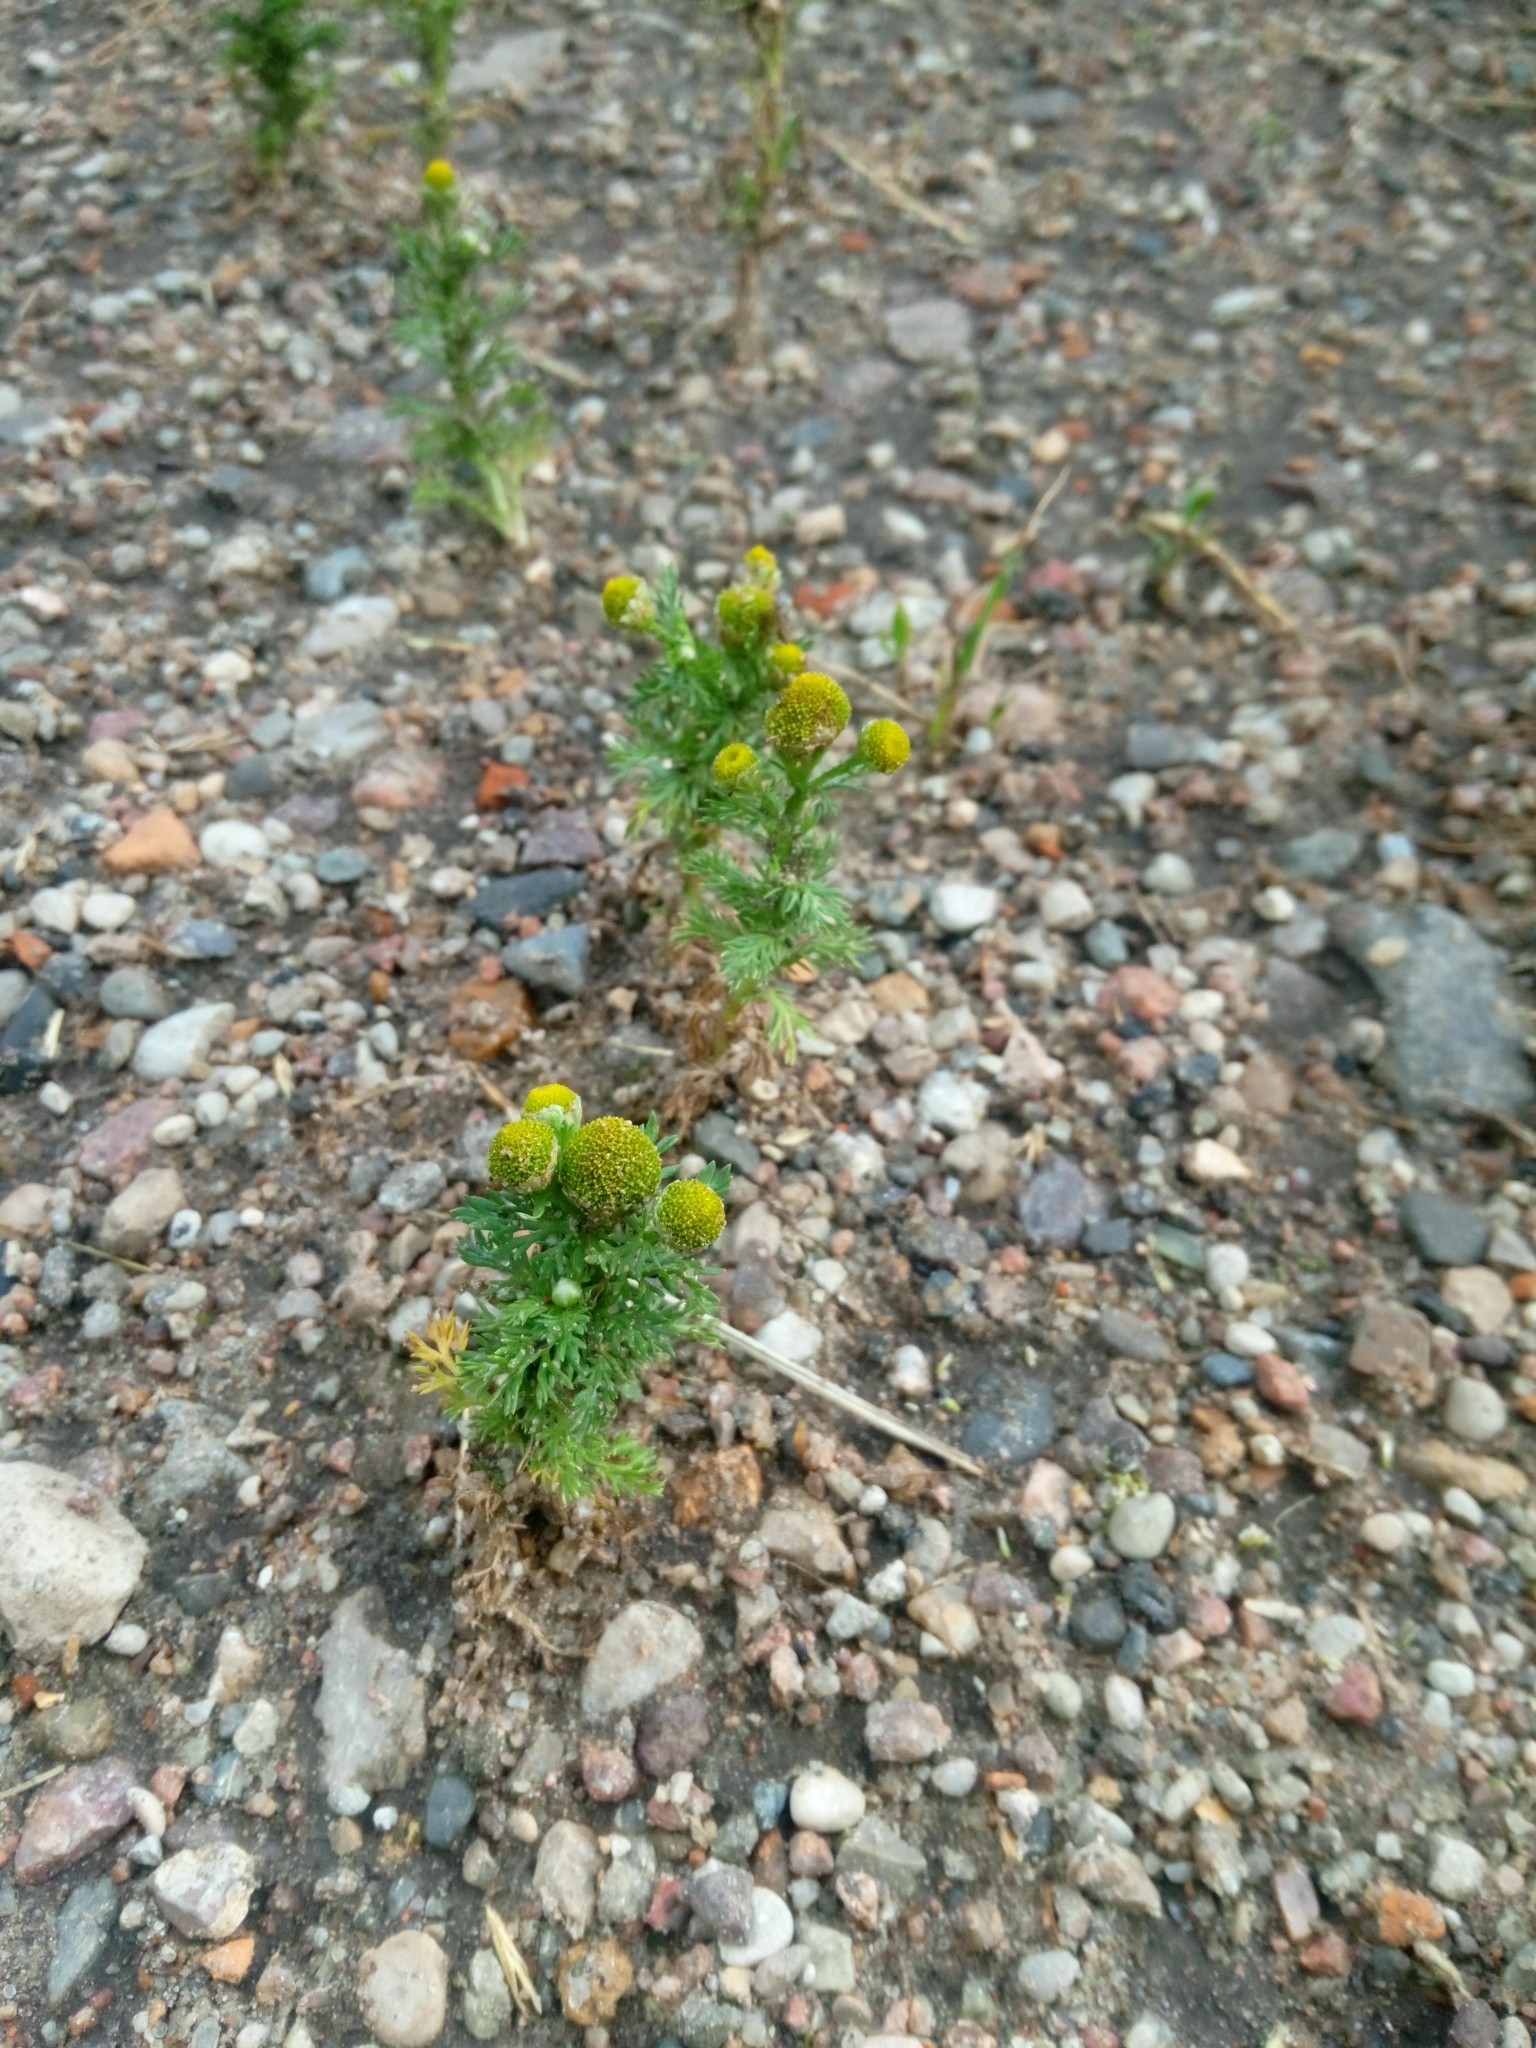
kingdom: Plantae
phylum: Tracheophyta
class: Magnoliopsida
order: Asterales
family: Asteraceae
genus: Matricaria
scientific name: Matricaria discoidea
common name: Disc mayweed
